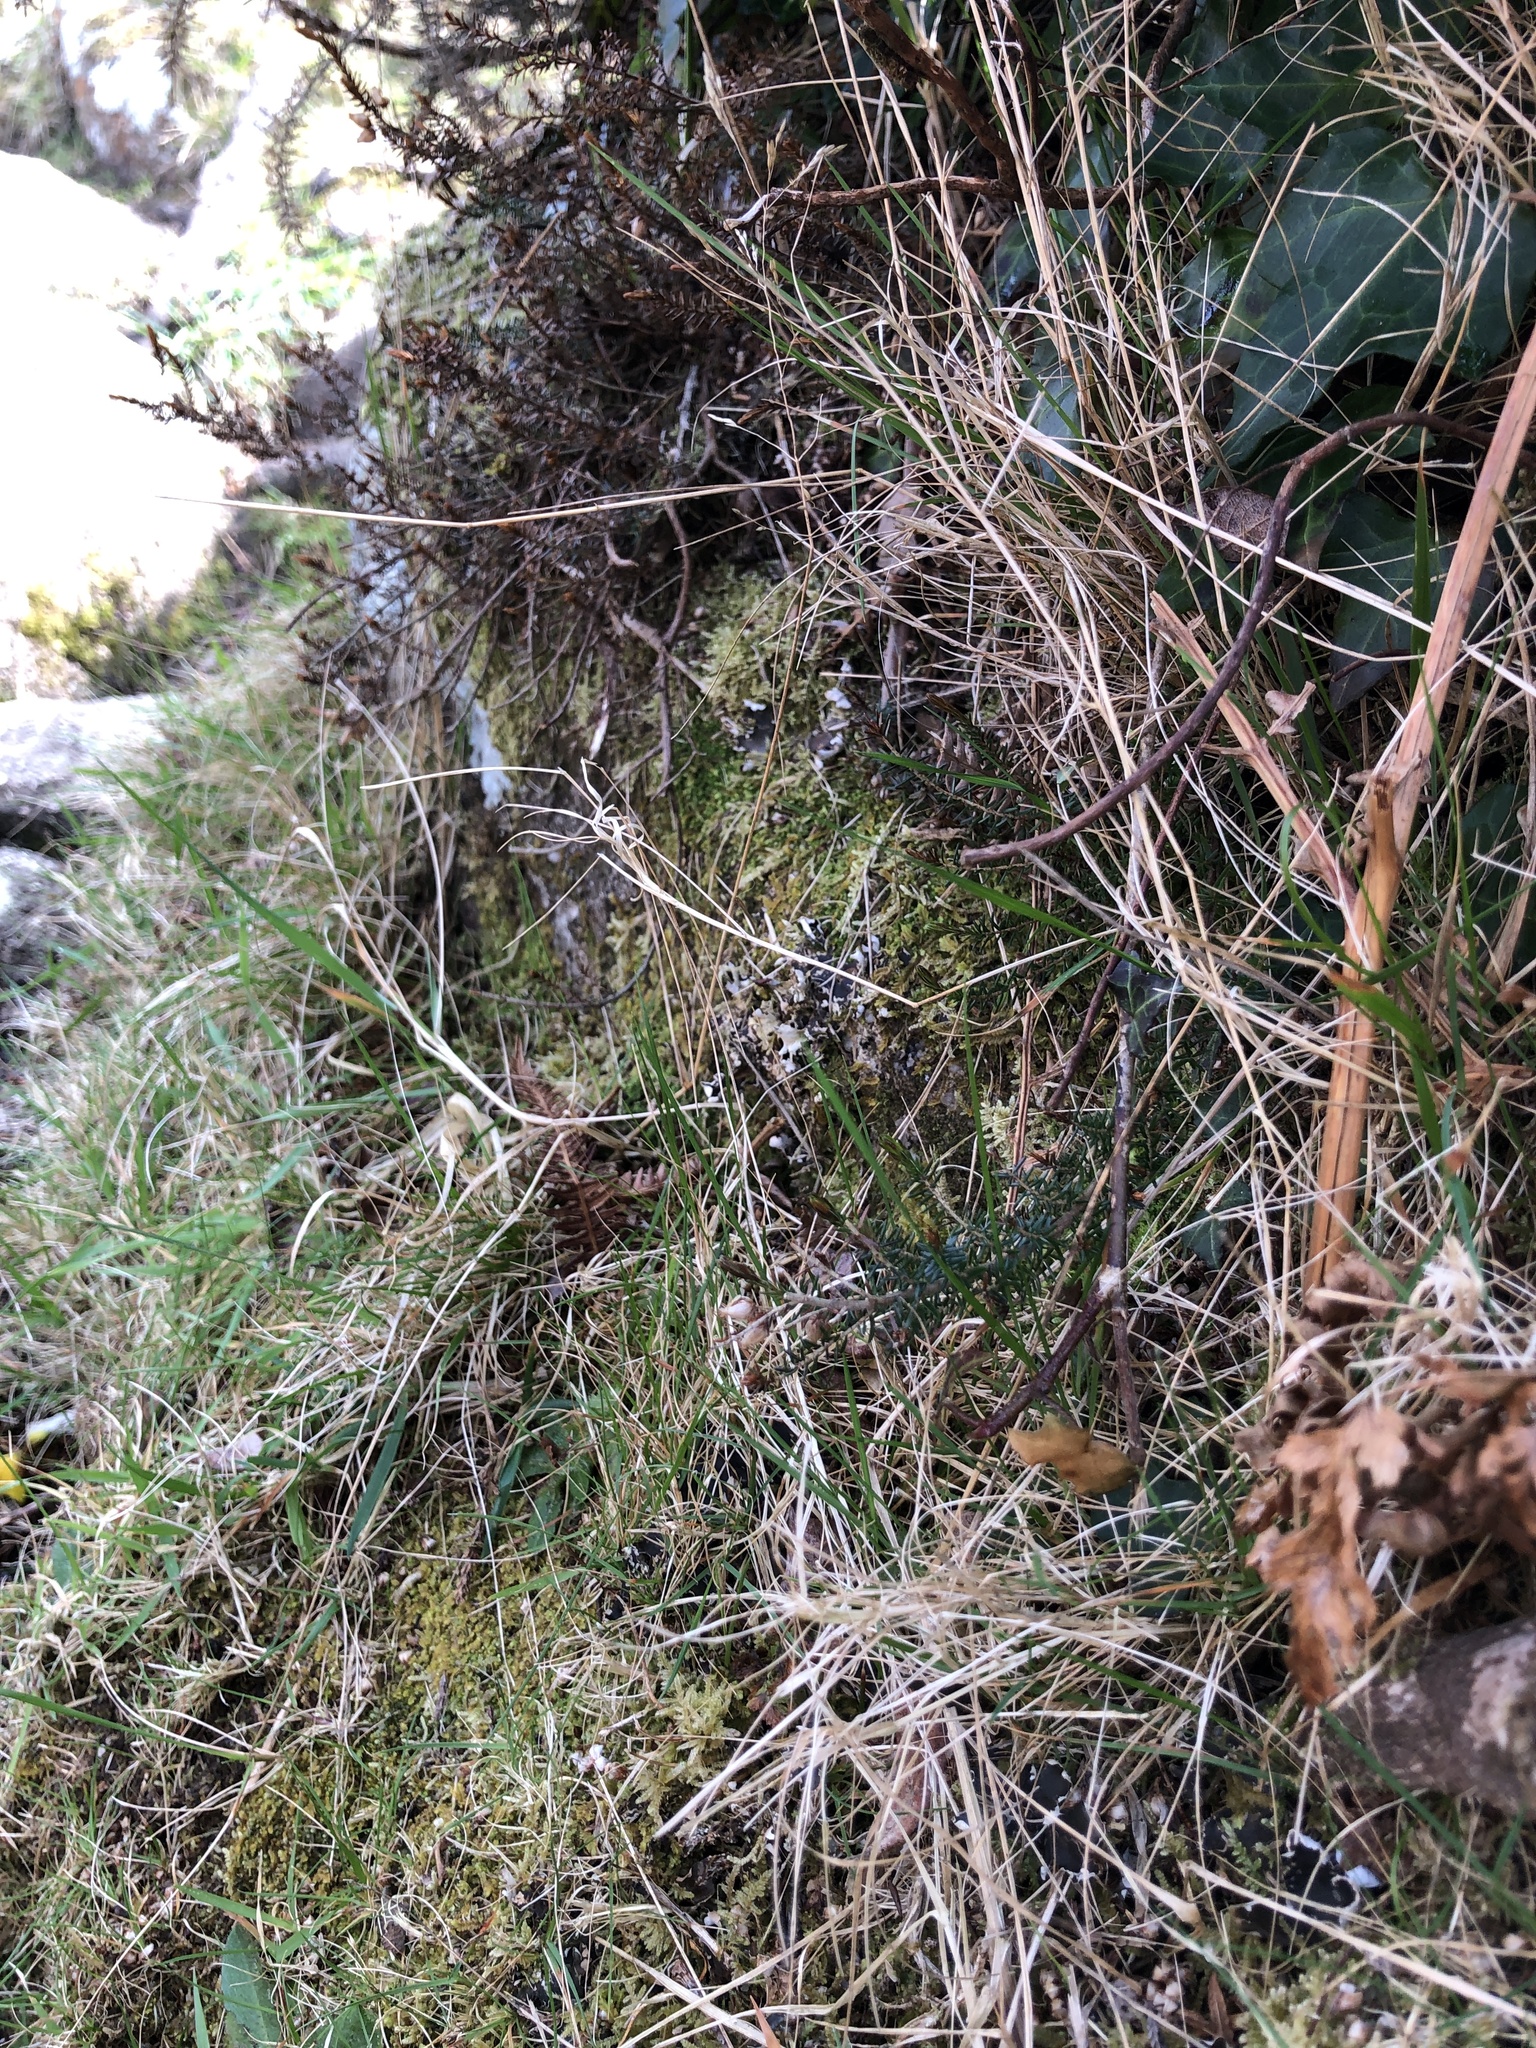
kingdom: Plantae
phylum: Marchantiophyta
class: Jungermanniopsida
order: Jungermanniales
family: Lophoziaceae
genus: Lophozia
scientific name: Lophozia ventricosa
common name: Tumid notchwort
